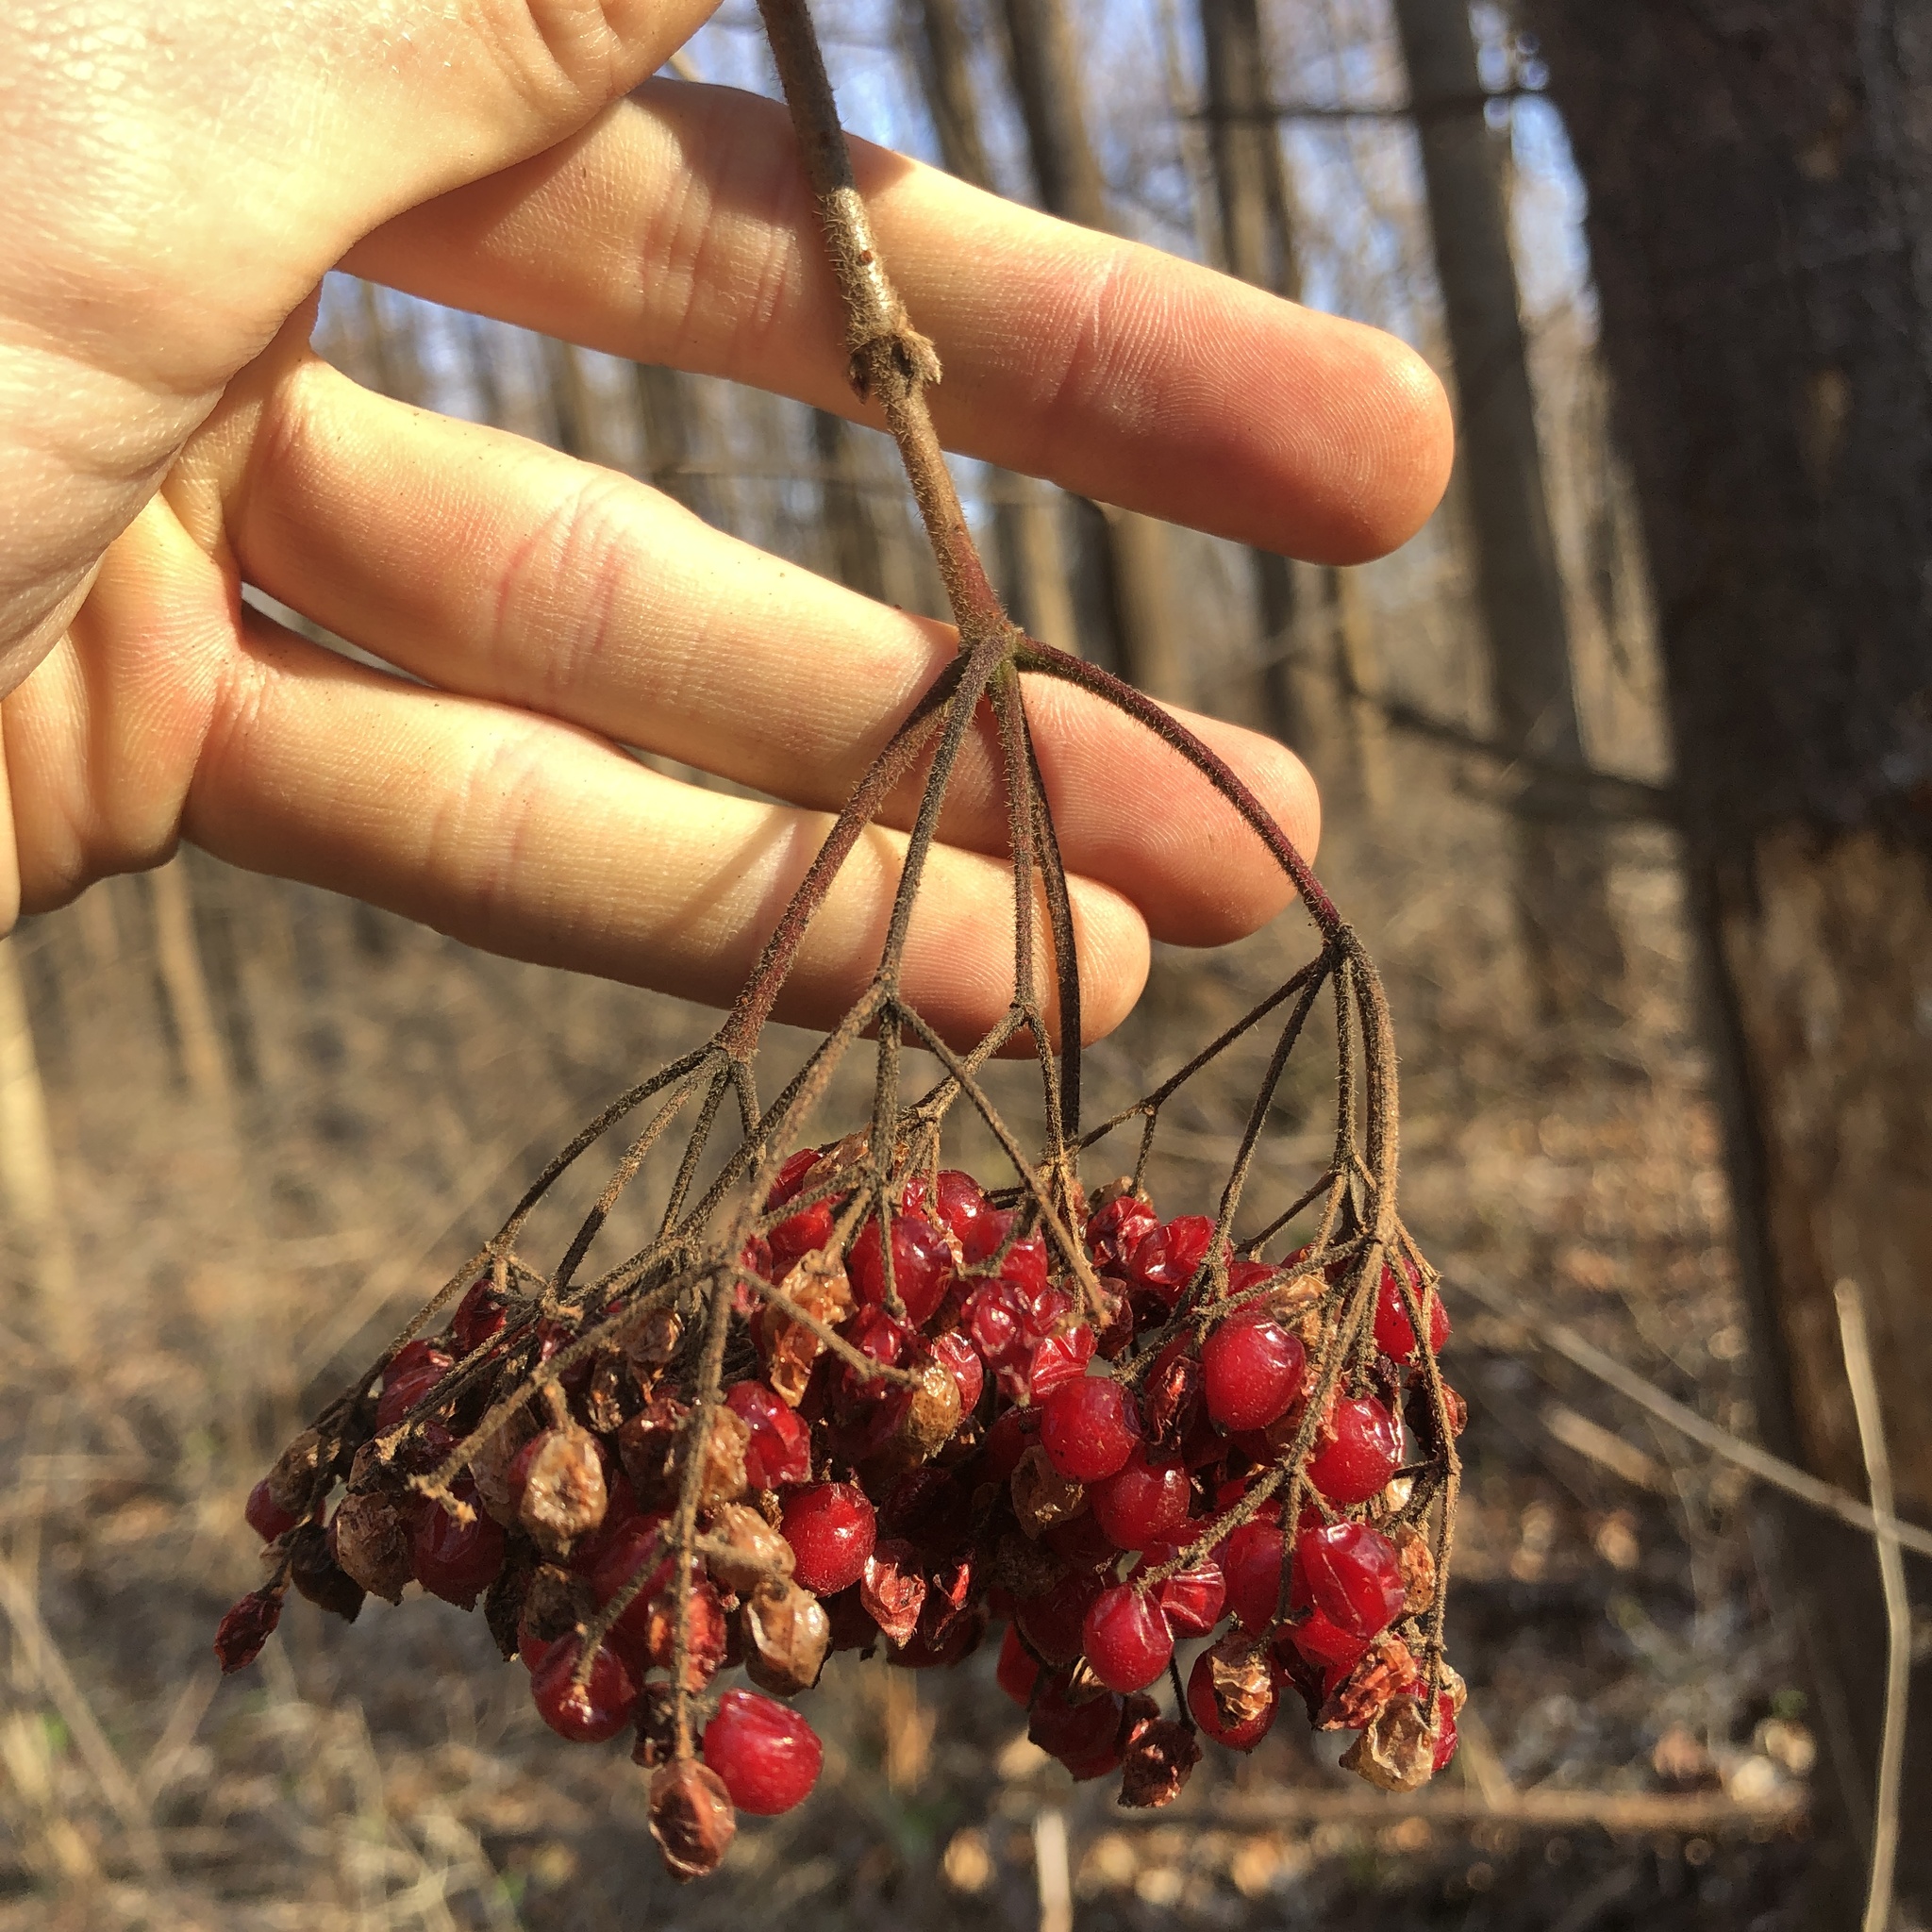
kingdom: Plantae
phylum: Tracheophyta
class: Magnoliopsida
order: Dipsacales
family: Viburnaceae
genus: Viburnum
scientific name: Viburnum dilatatum
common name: Linden arrowwood
